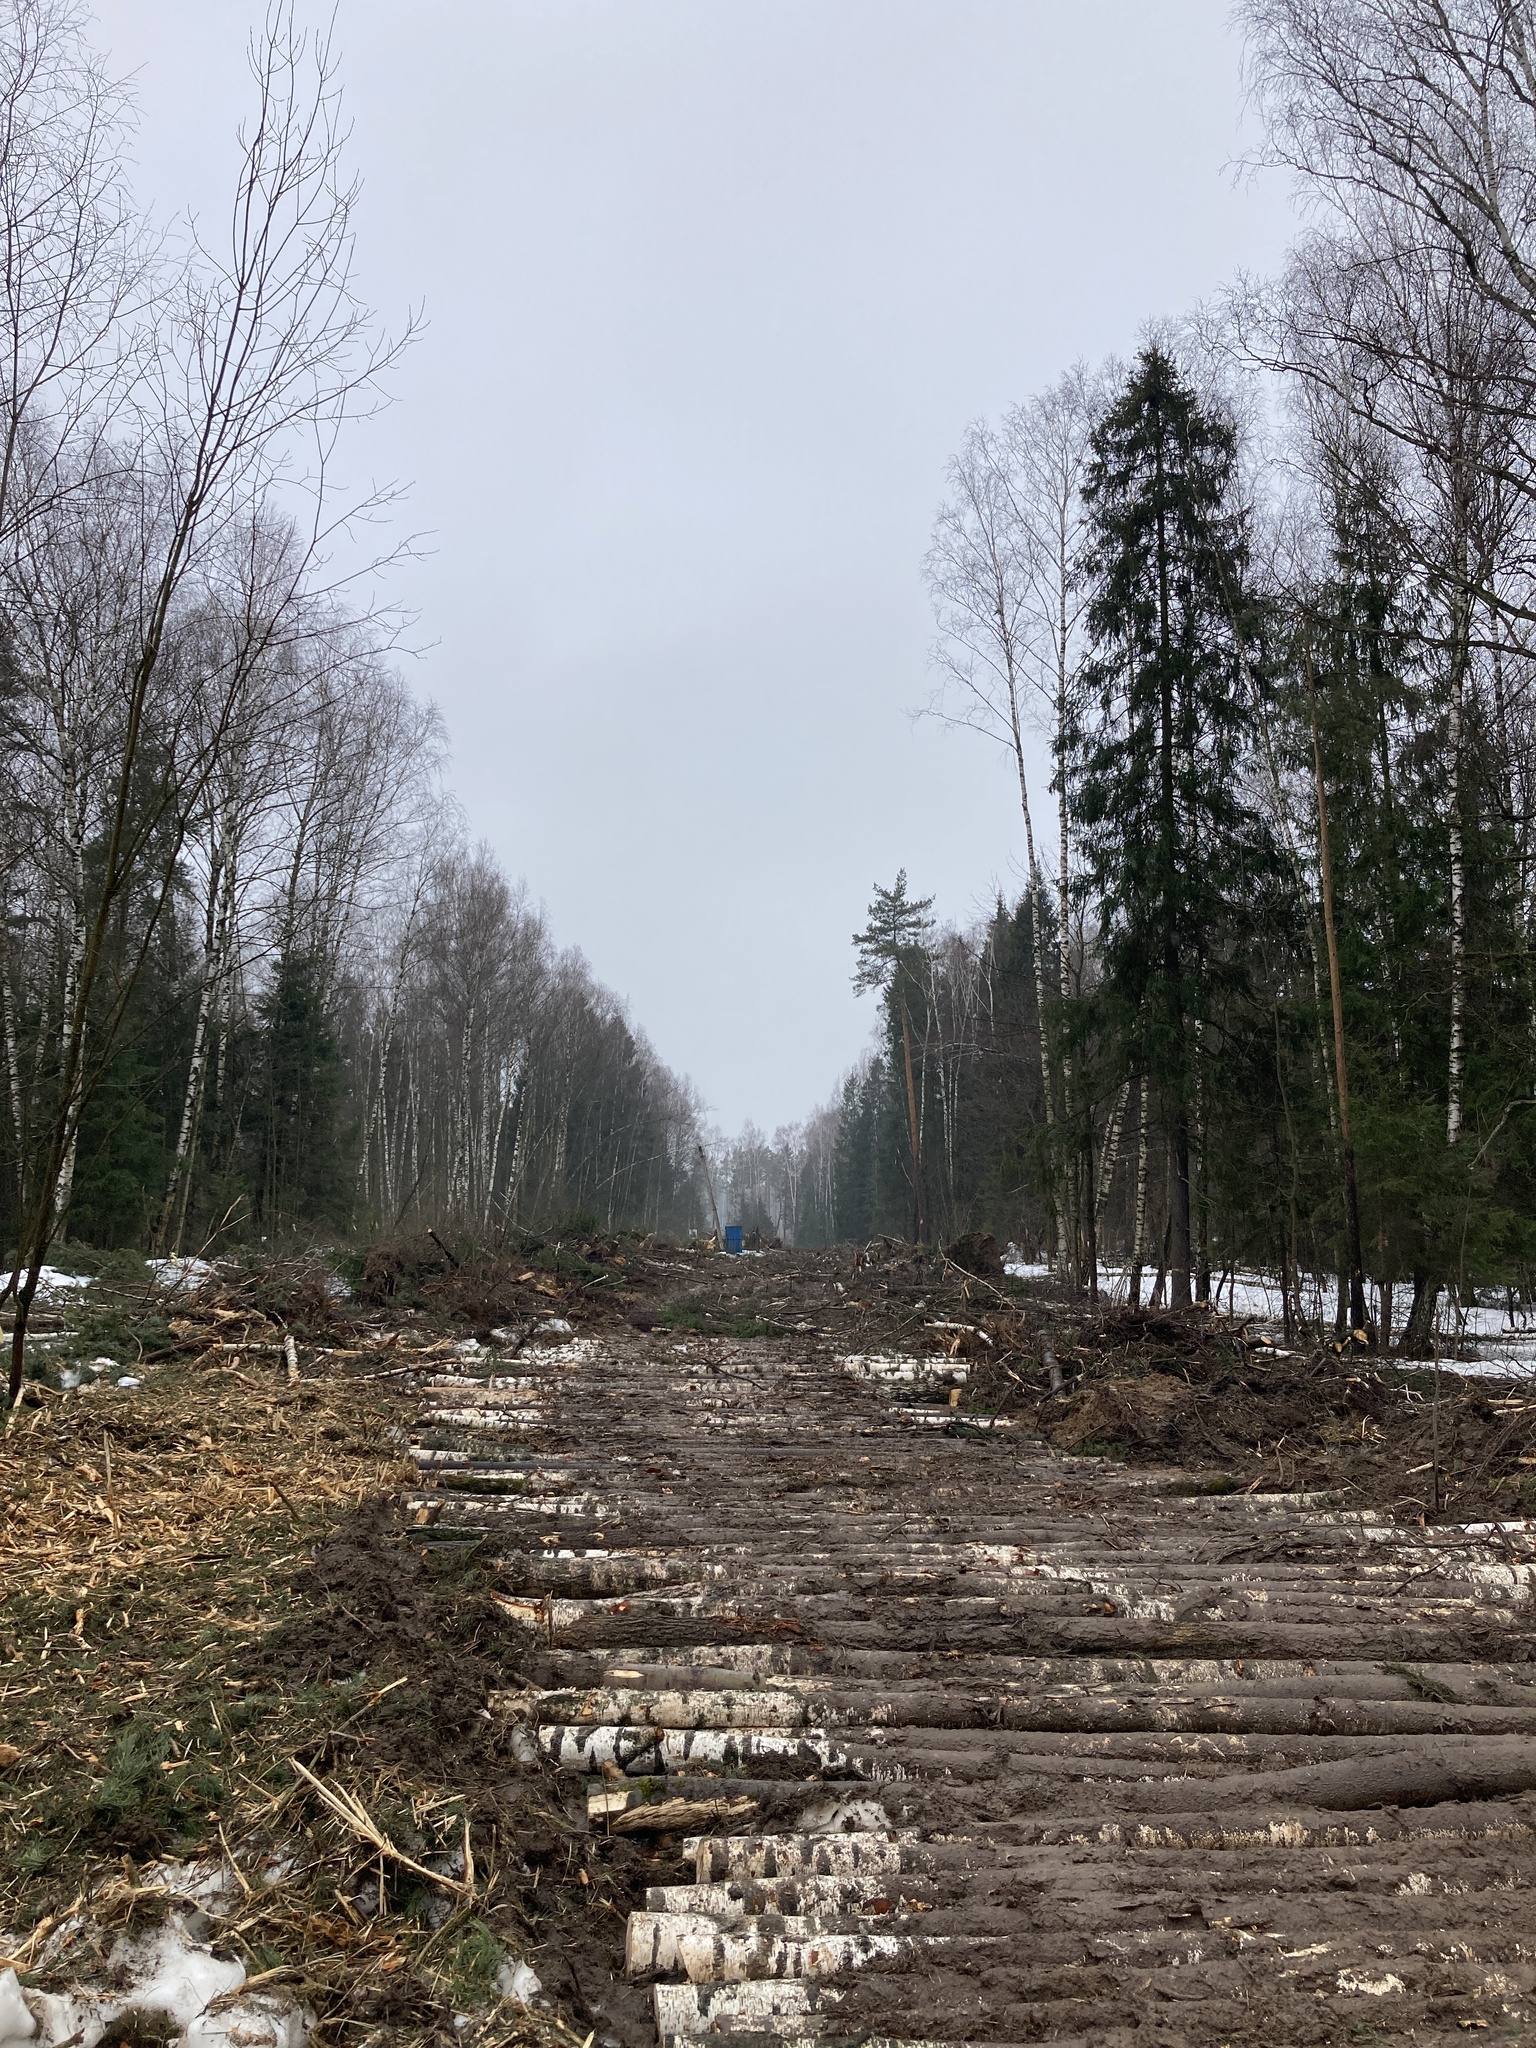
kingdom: Plantae
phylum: Tracheophyta
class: Pinopsida
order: Pinales
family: Pinaceae
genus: Picea
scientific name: Picea abies
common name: Norway spruce
